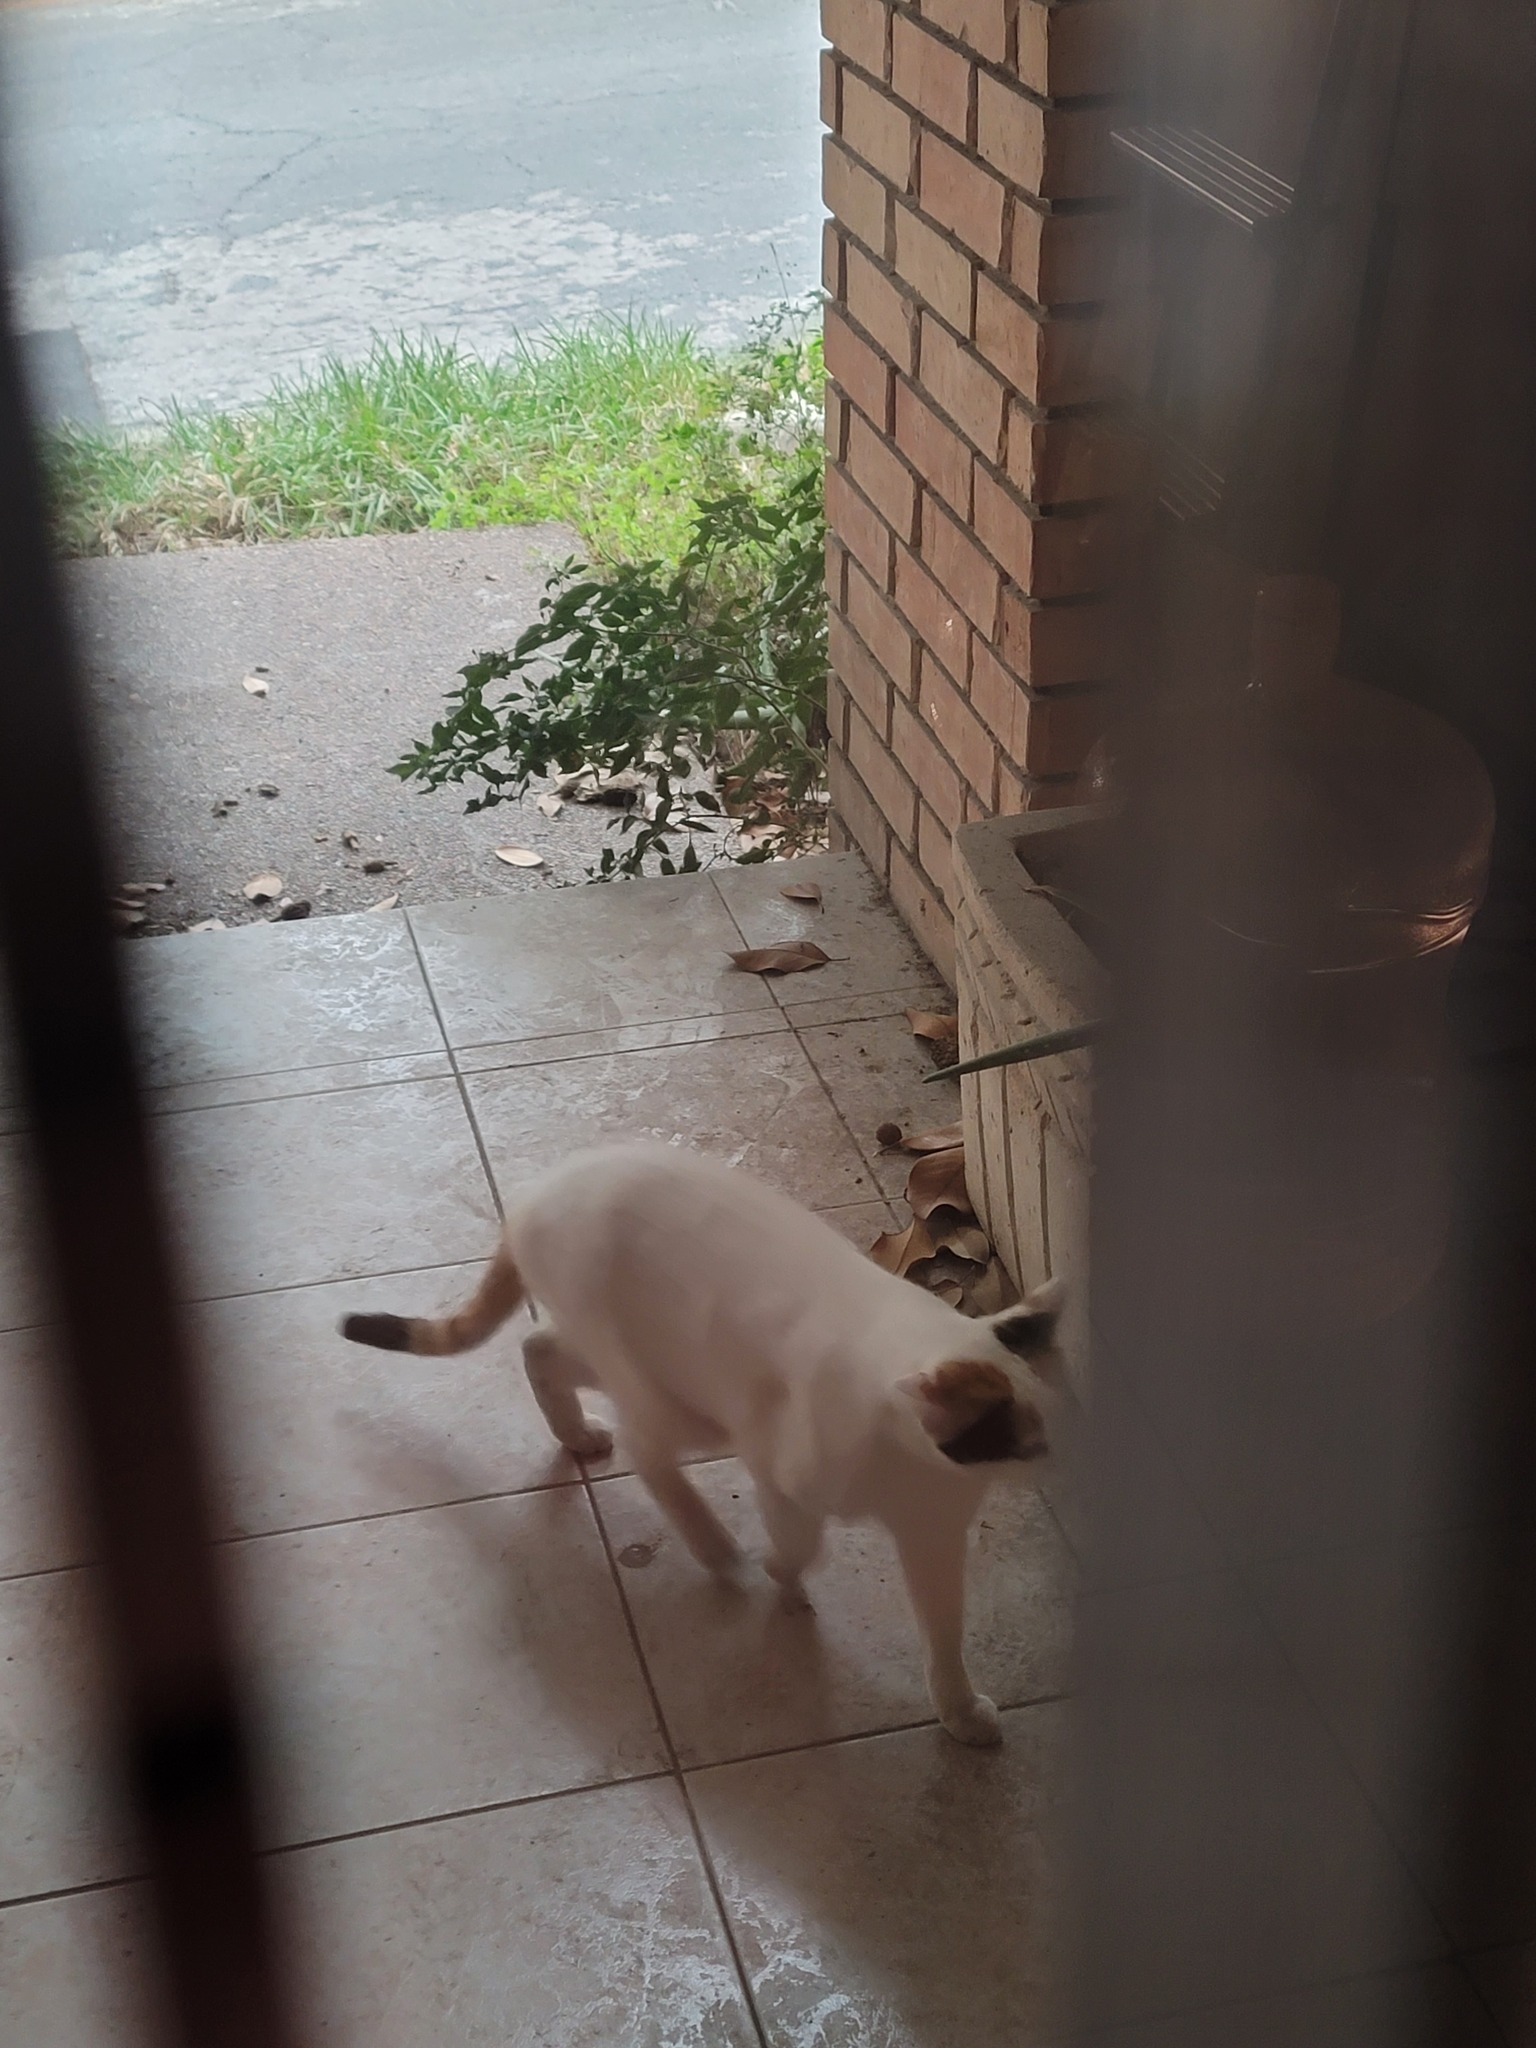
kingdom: Animalia
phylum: Chordata
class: Mammalia
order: Carnivora
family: Felidae
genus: Felis
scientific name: Felis catus
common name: Domestic cat
